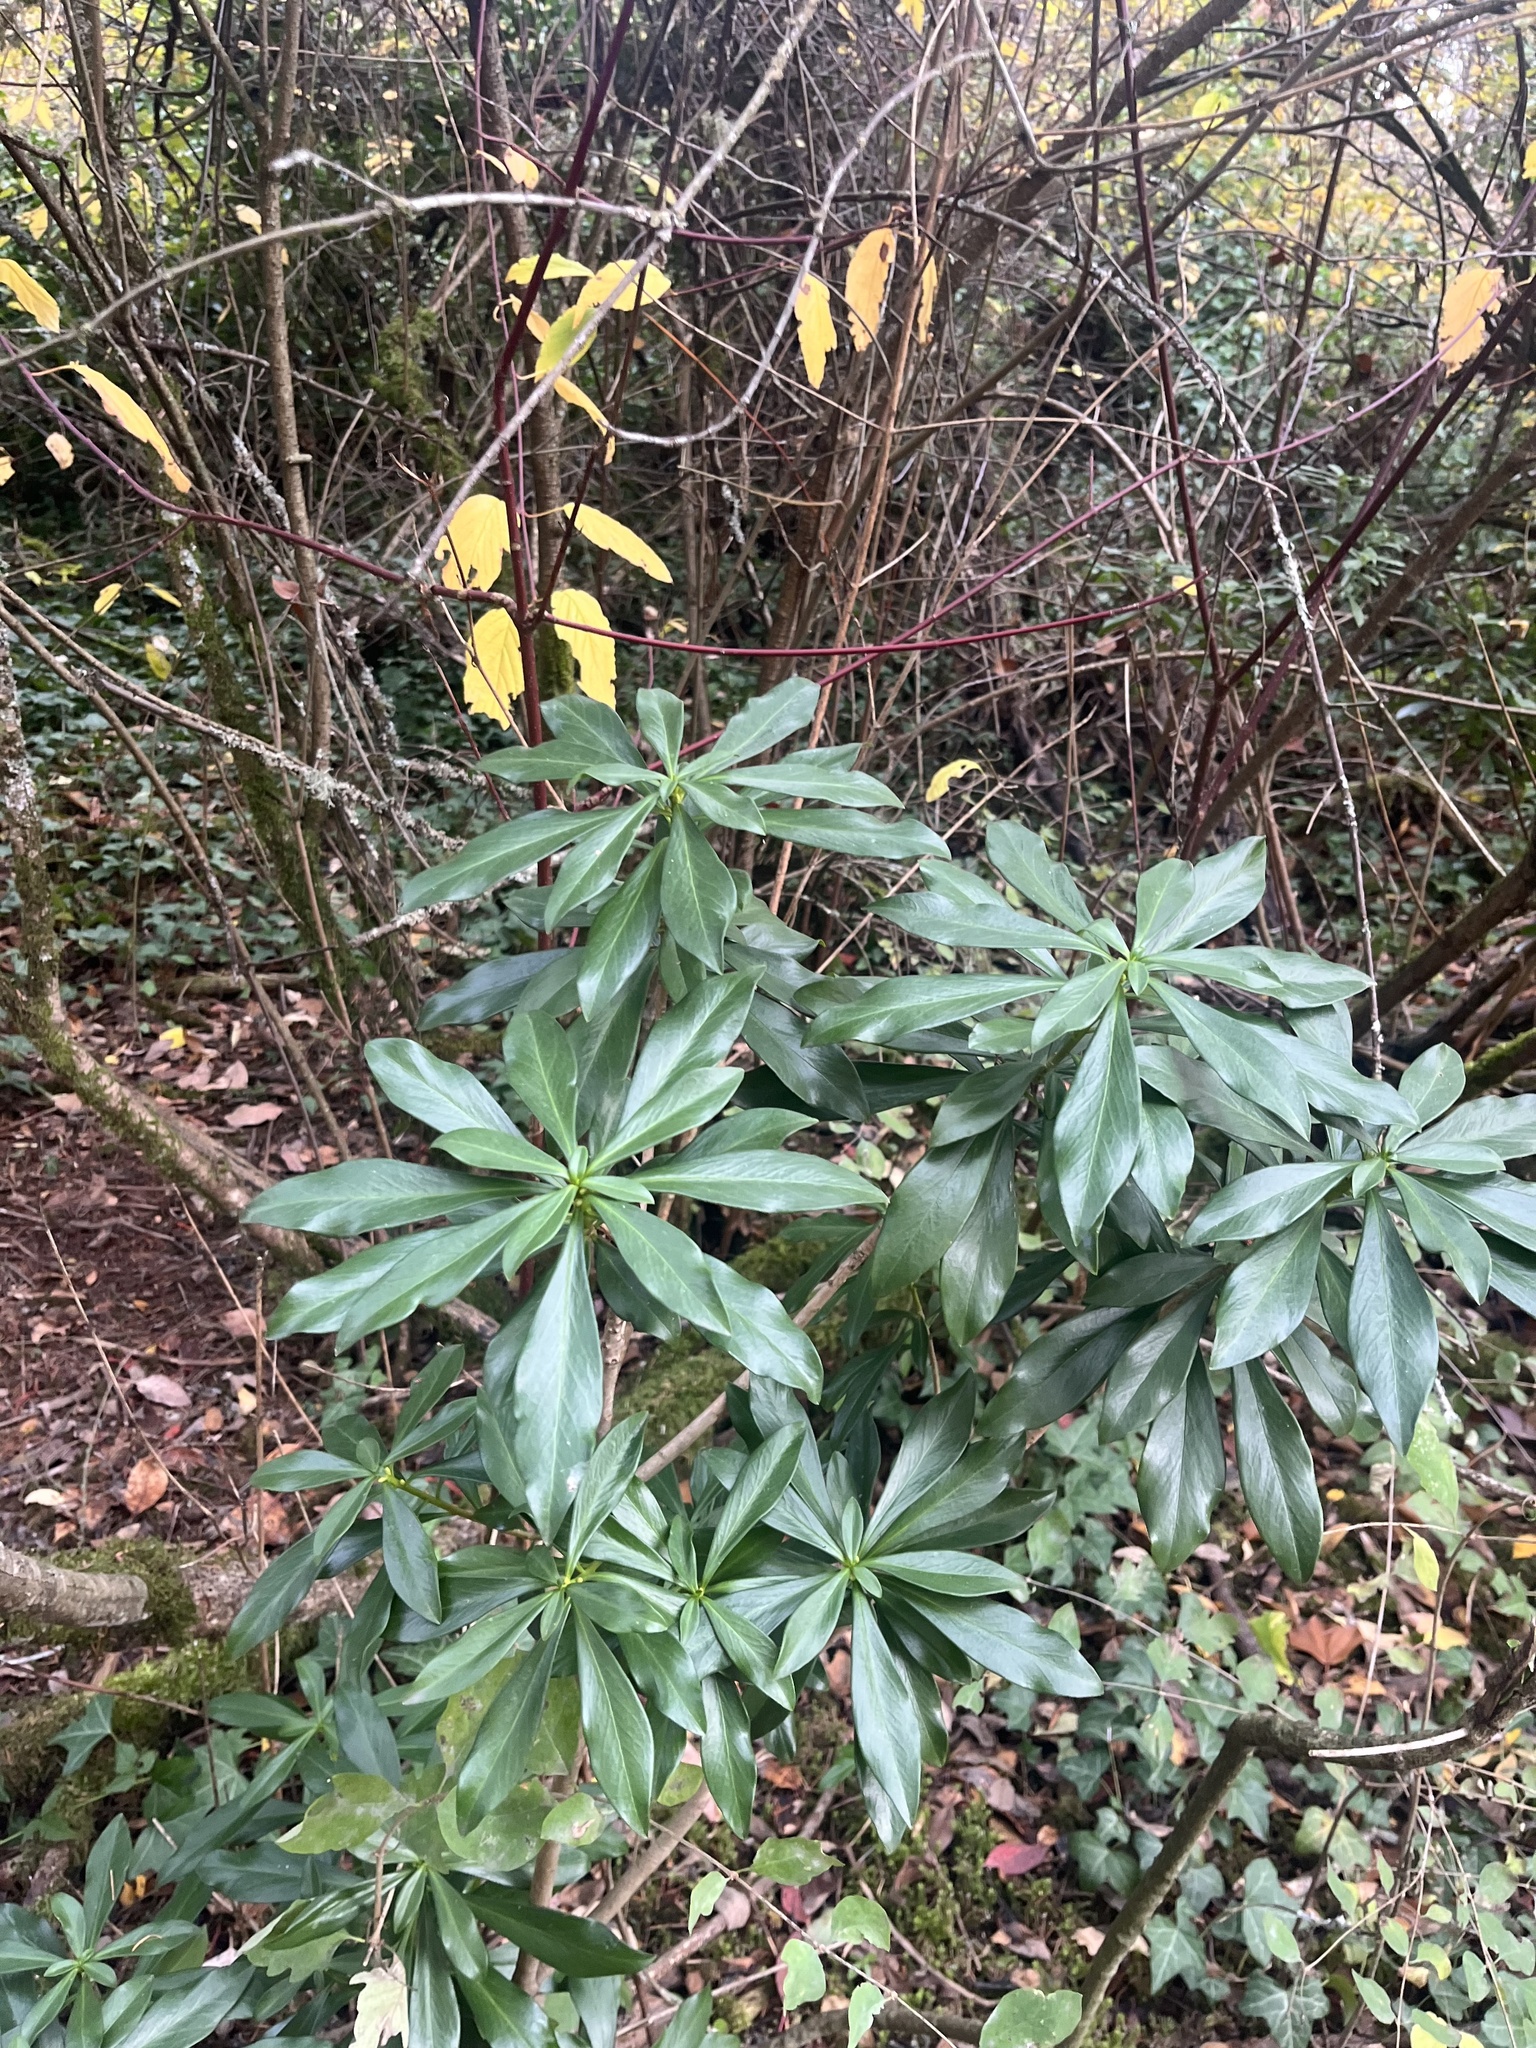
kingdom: Plantae
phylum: Tracheophyta
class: Magnoliopsida
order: Malvales
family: Thymelaeaceae
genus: Daphne
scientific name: Daphne laureola
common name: Spurge-laurel
